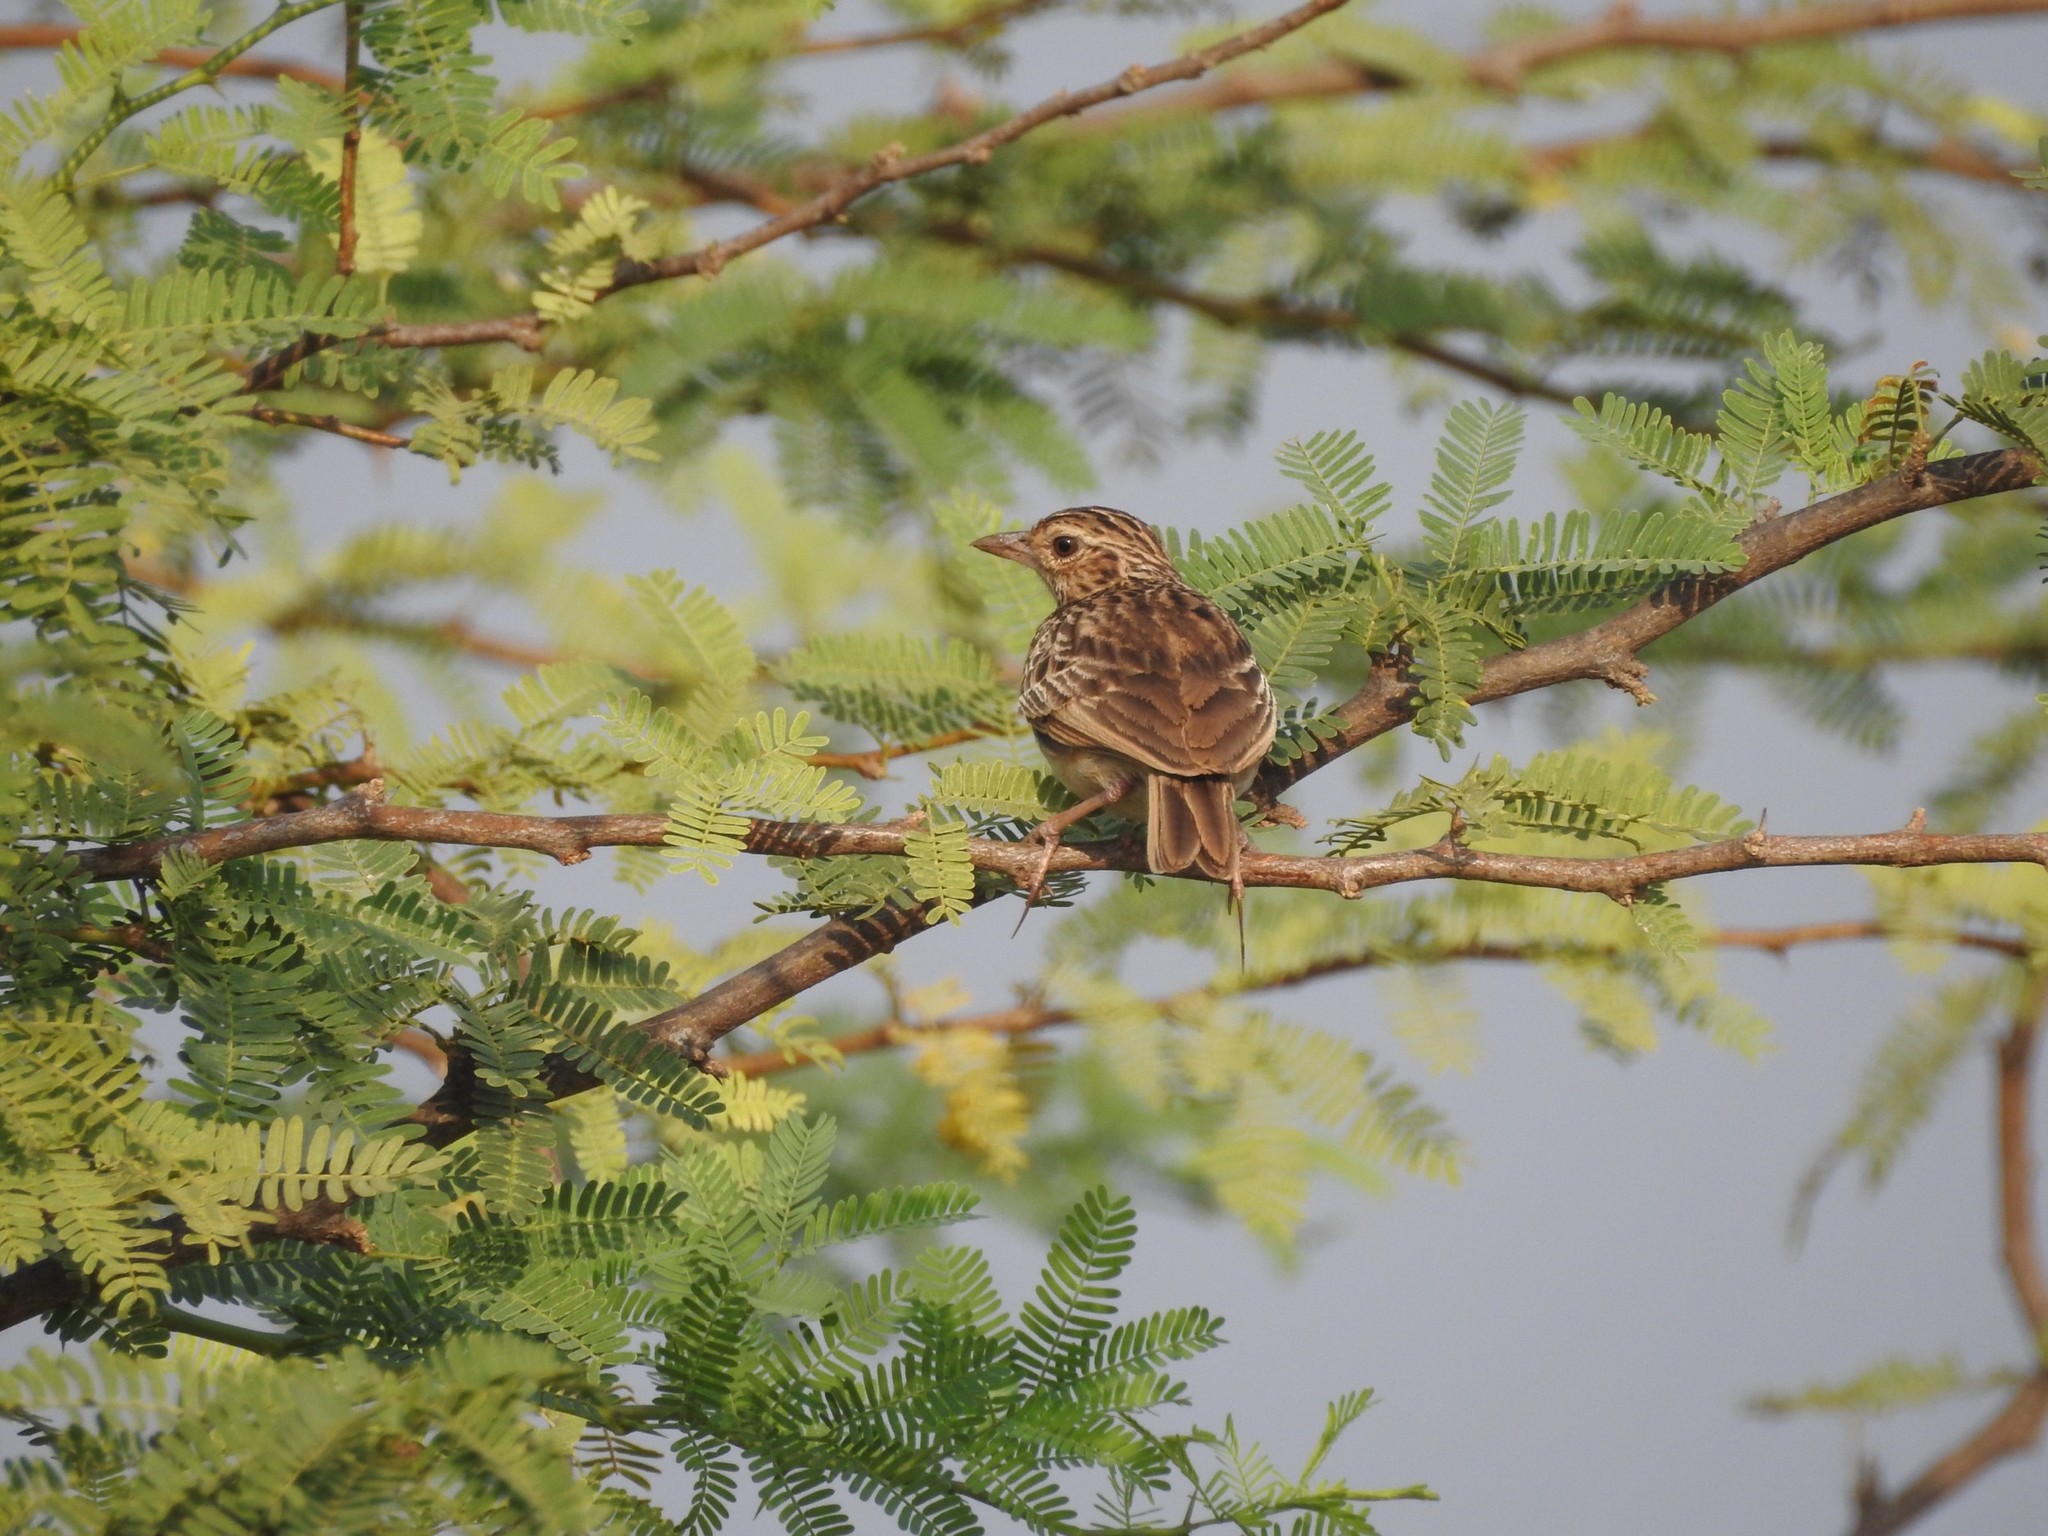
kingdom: Animalia
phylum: Chordata
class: Aves
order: Passeriformes
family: Alaudidae
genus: Mirafra
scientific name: Mirafra affinis
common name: Jerdon's bushlark
